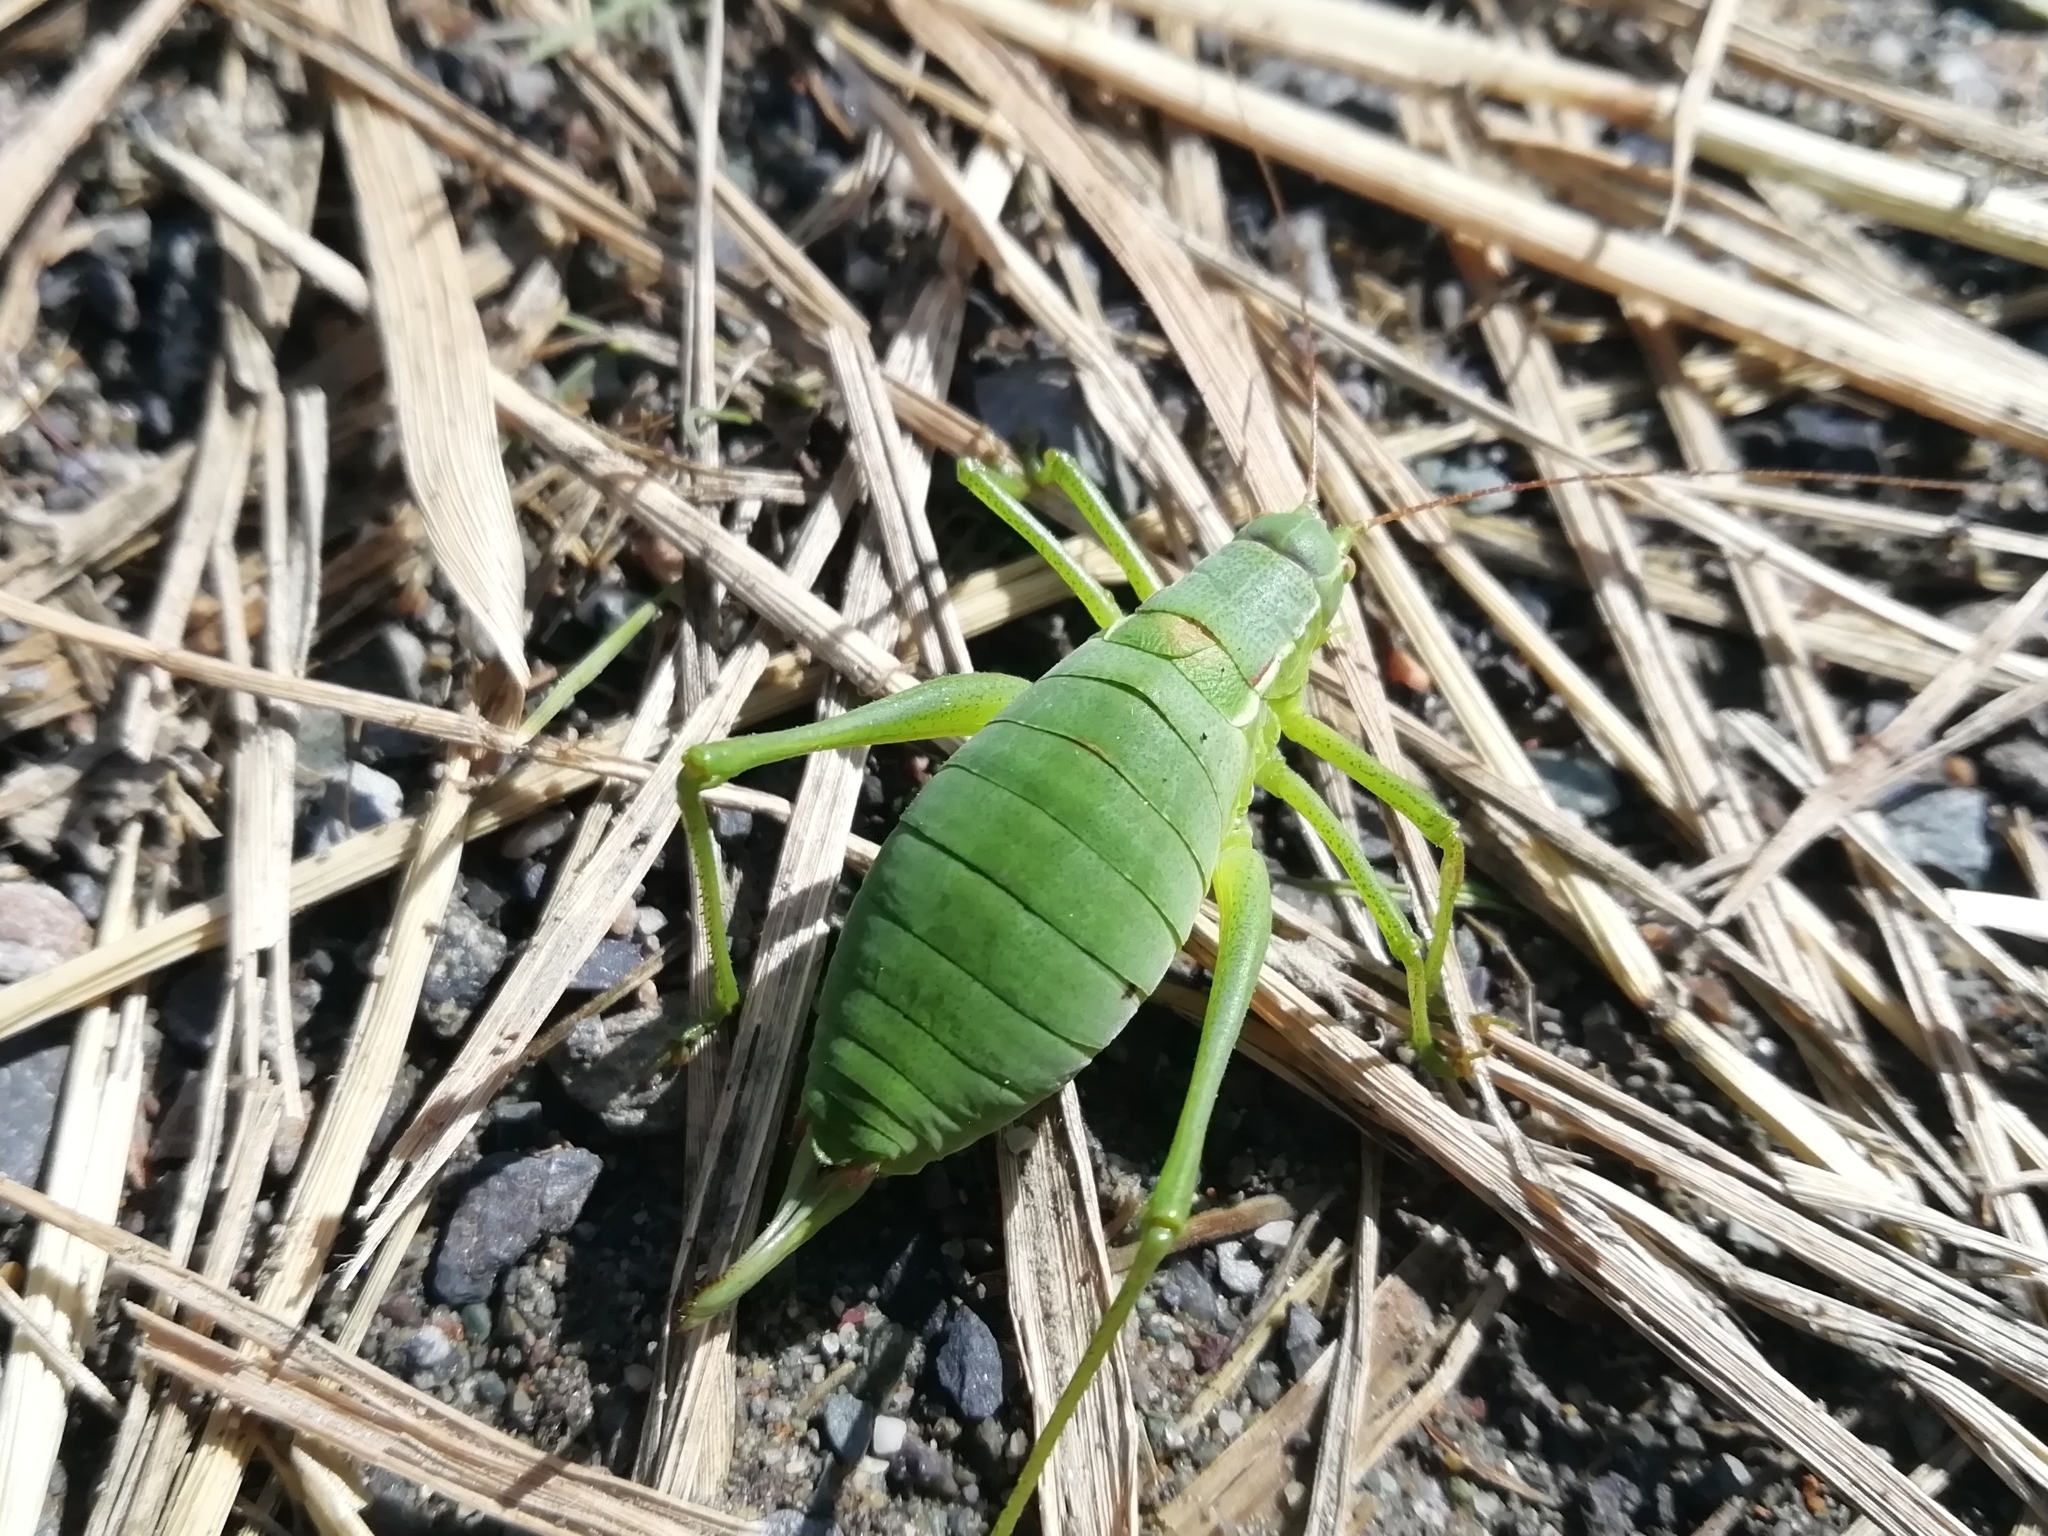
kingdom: Animalia
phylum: Arthropoda
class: Insecta
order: Orthoptera
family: Tettigoniidae
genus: Isophya
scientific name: Isophya altaica
